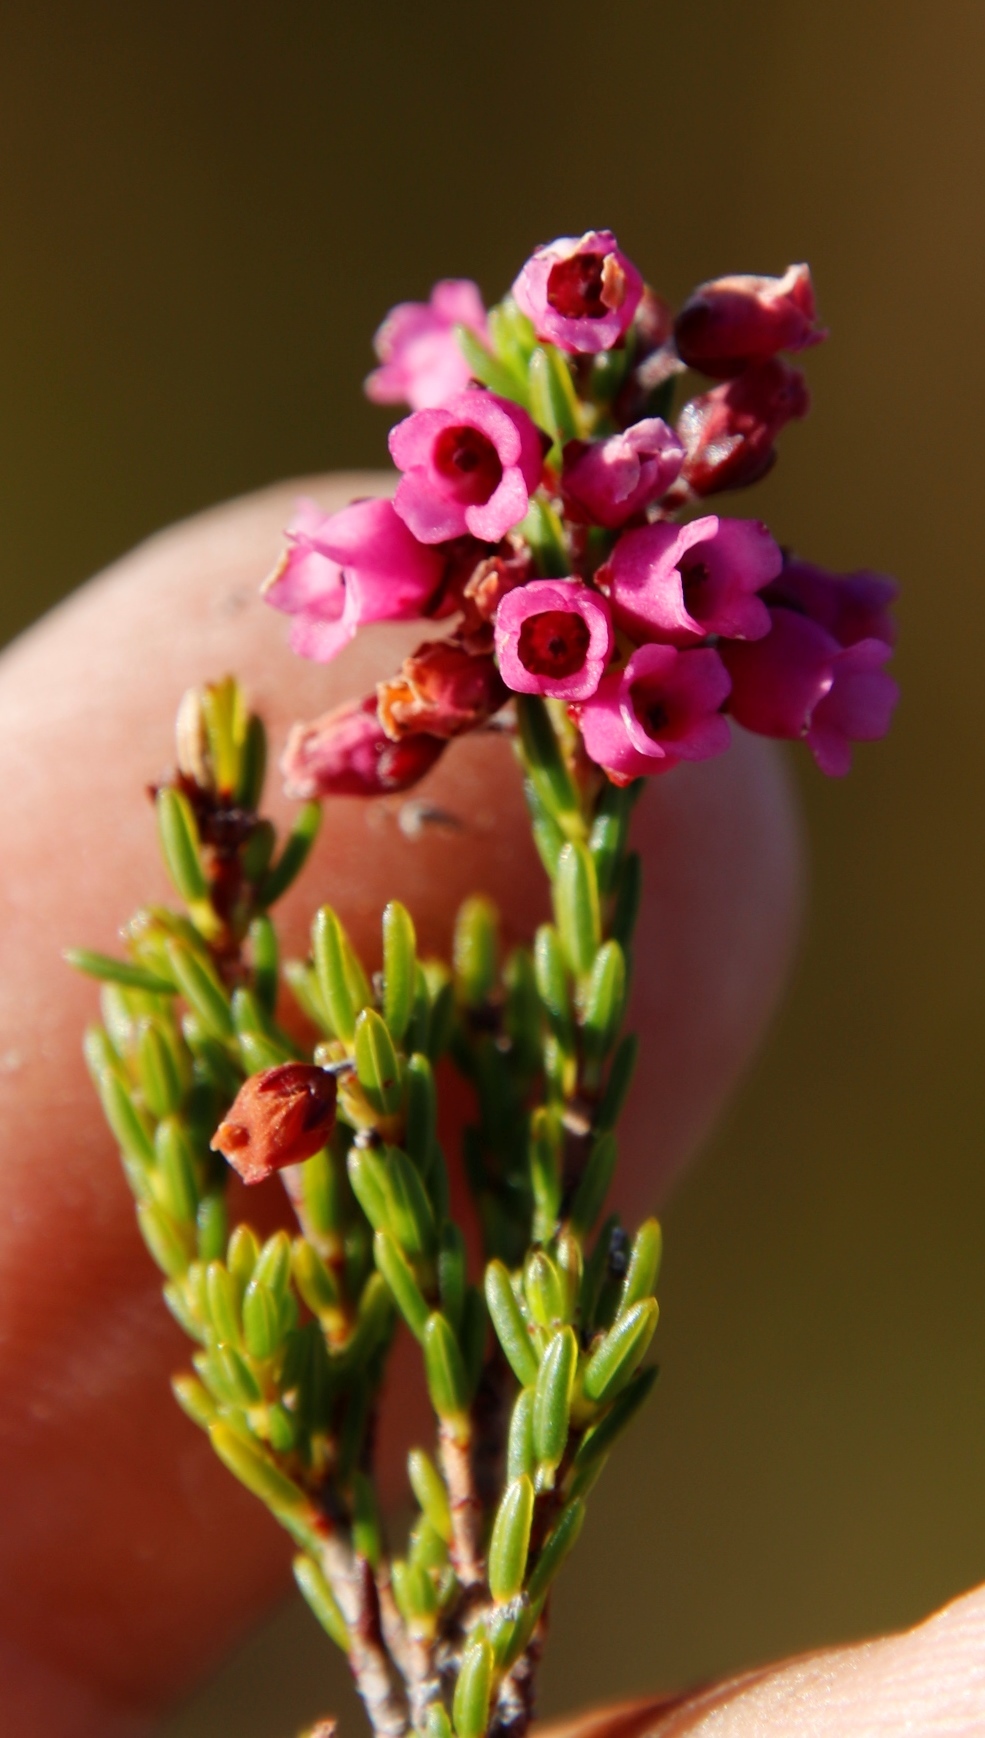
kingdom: Plantae
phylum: Tracheophyta
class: Magnoliopsida
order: Ericales
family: Ericaceae
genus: Erica
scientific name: Erica pulchella
